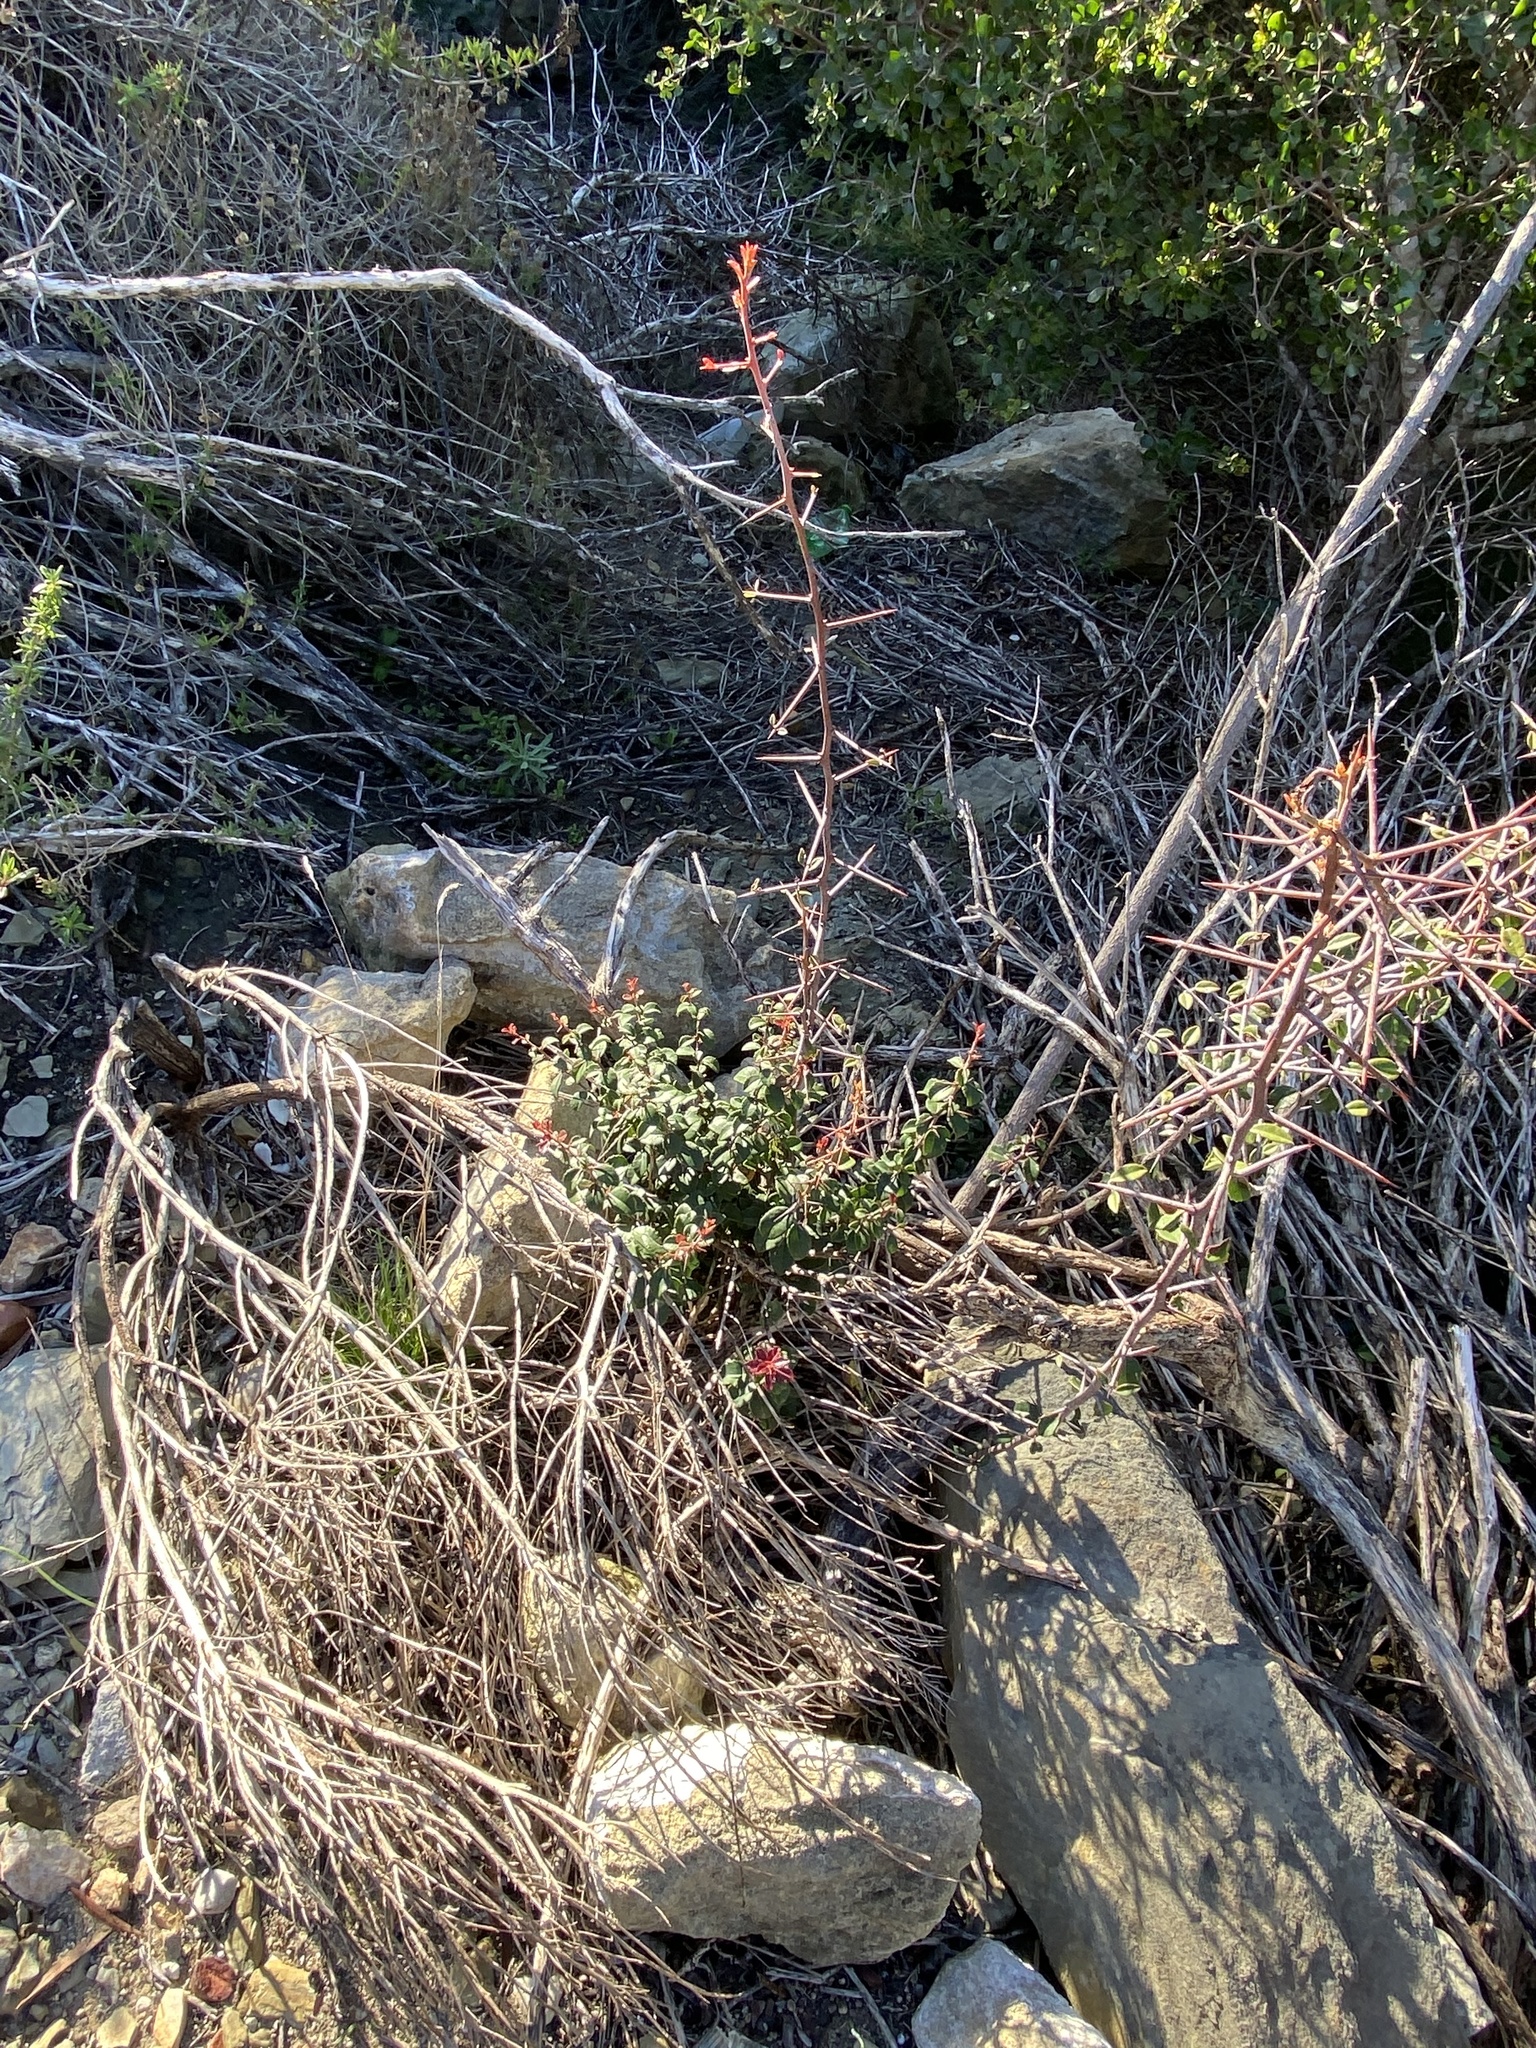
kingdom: Plantae
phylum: Tracheophyta
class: Magnoliopsida
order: Celastrales
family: Celastraceae
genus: Putterlickia
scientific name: Putterlickia pyracantha
